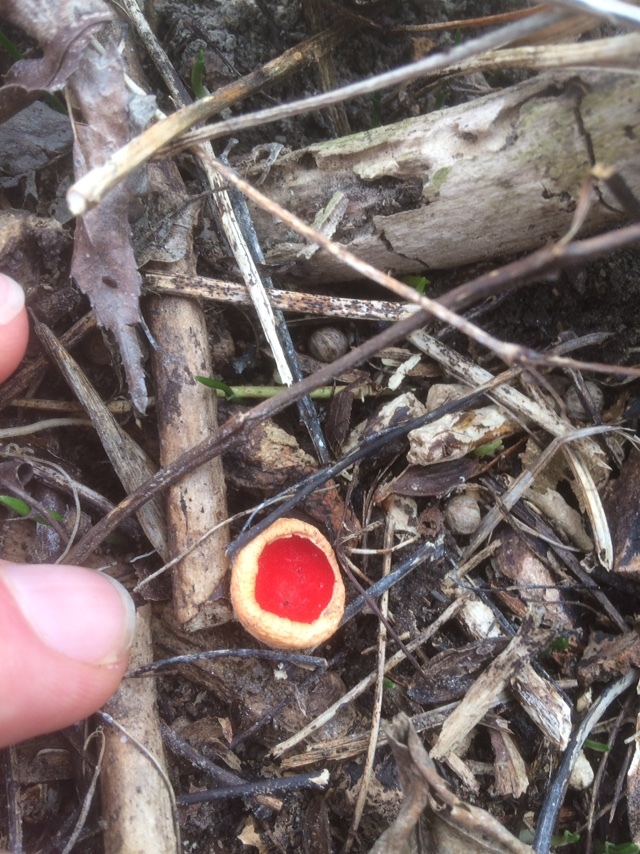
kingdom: Fungi
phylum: Ascomycota
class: Pezizomycetes
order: Pezizales
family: Sarcoscyphaceae
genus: Sarcoscypha
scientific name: Sarcoscypha
